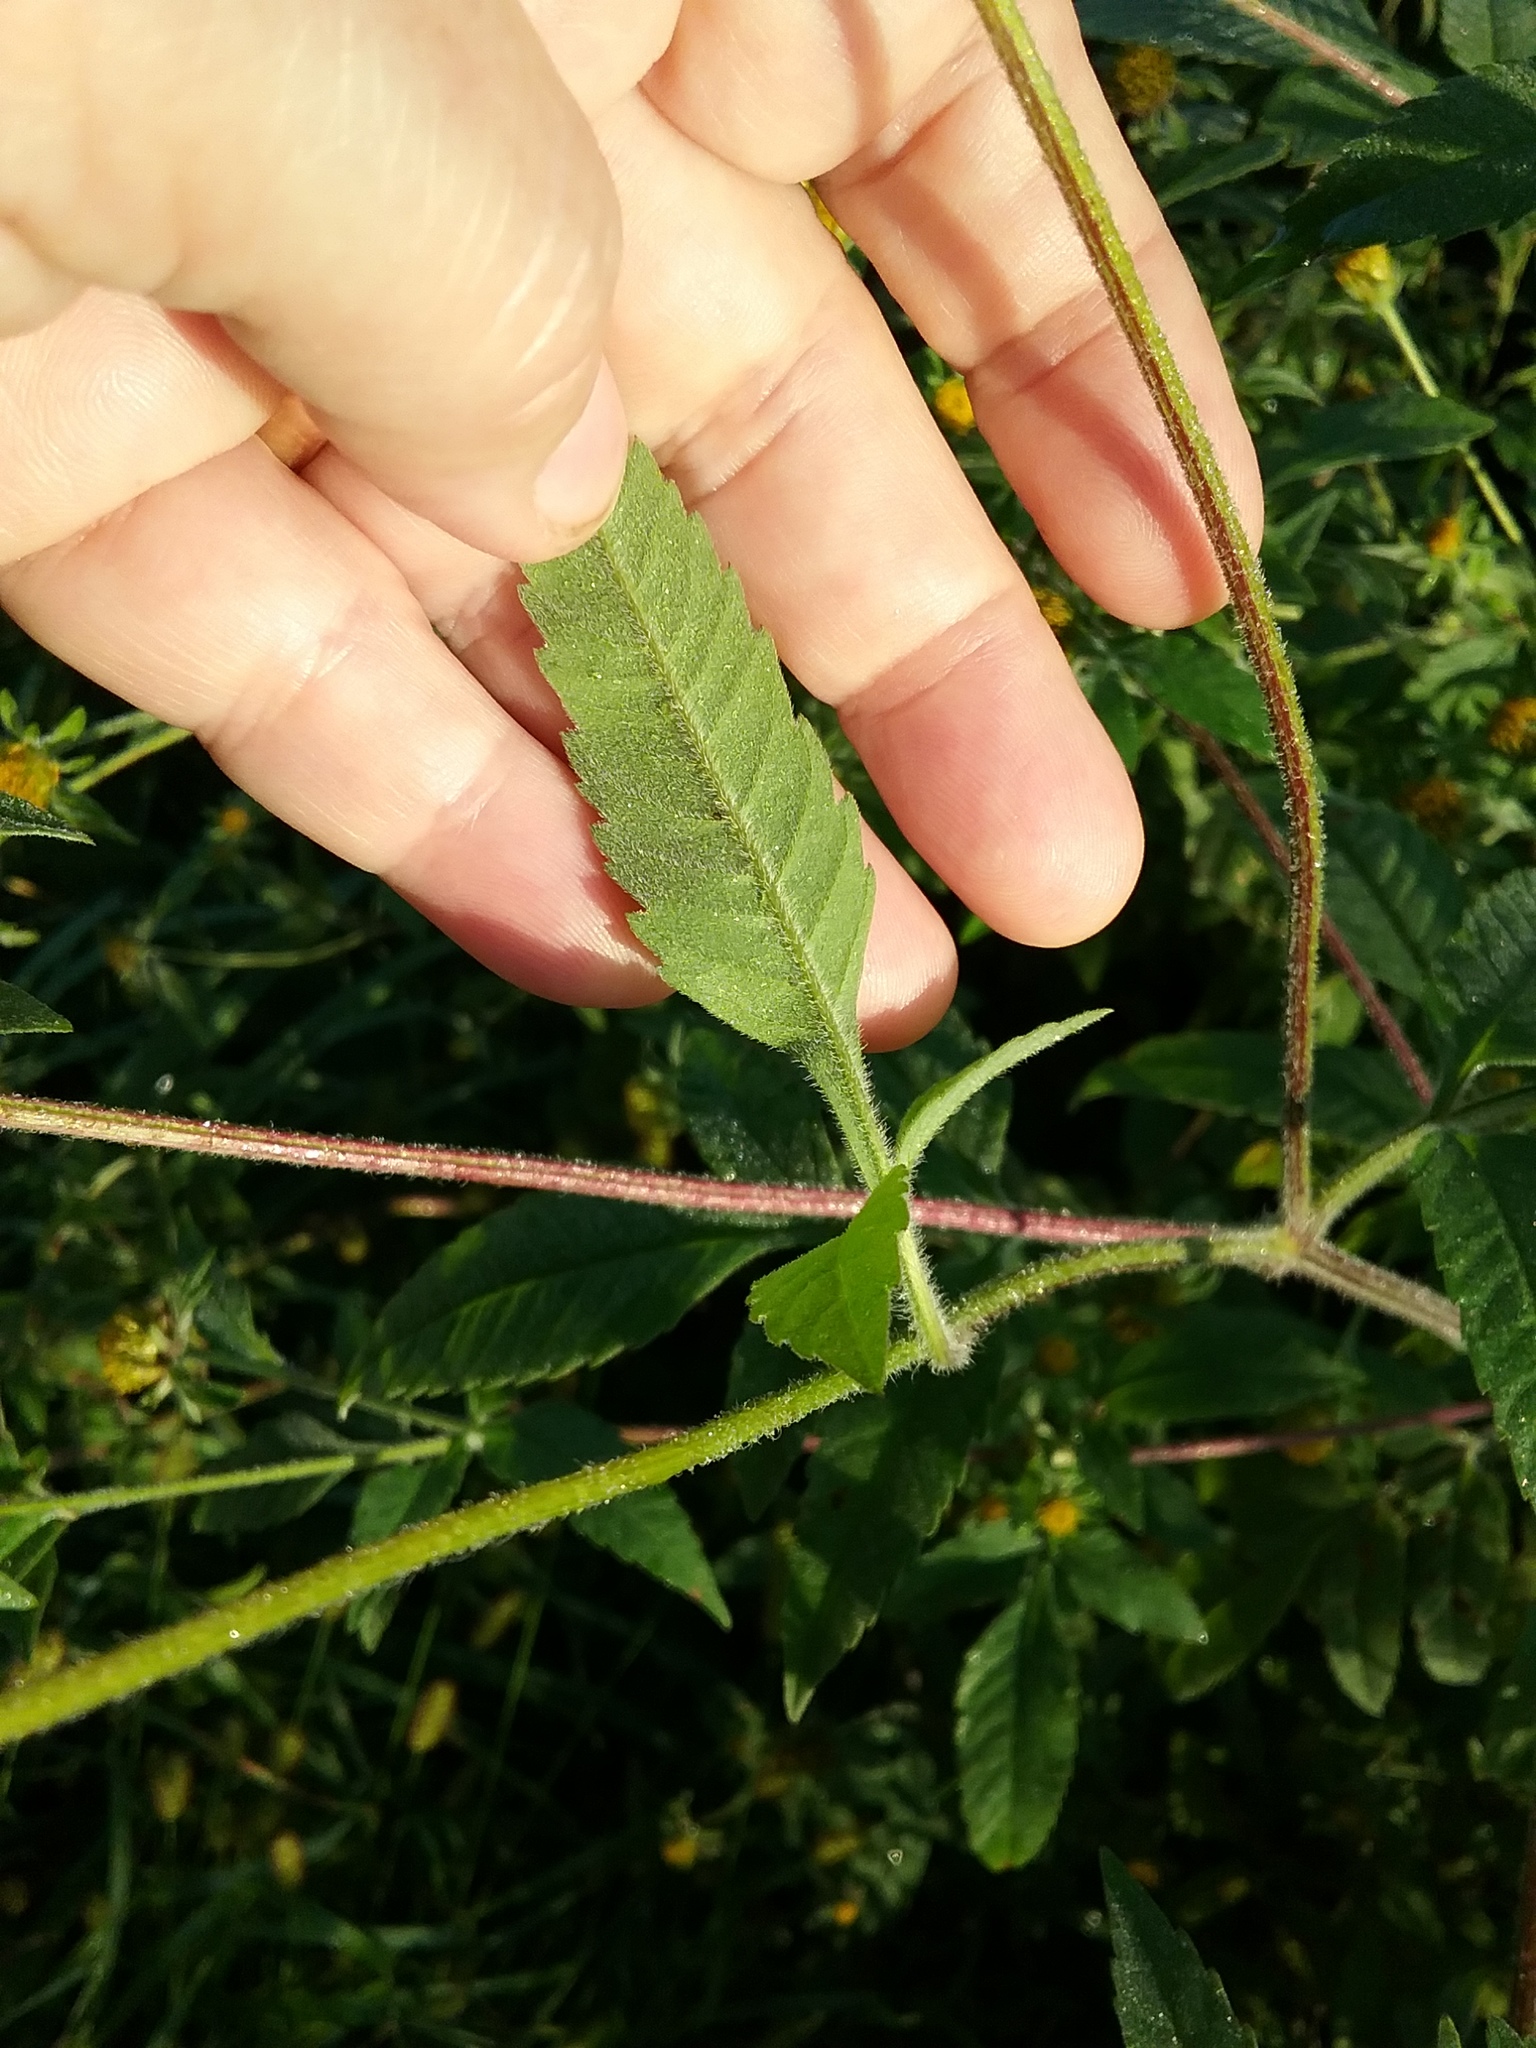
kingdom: Plantae
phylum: Tracheophyta
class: Magnoliopsida
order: Asterales
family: Asteraceae
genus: Bidens
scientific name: Bidens vulgata
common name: Tall beggarticks
